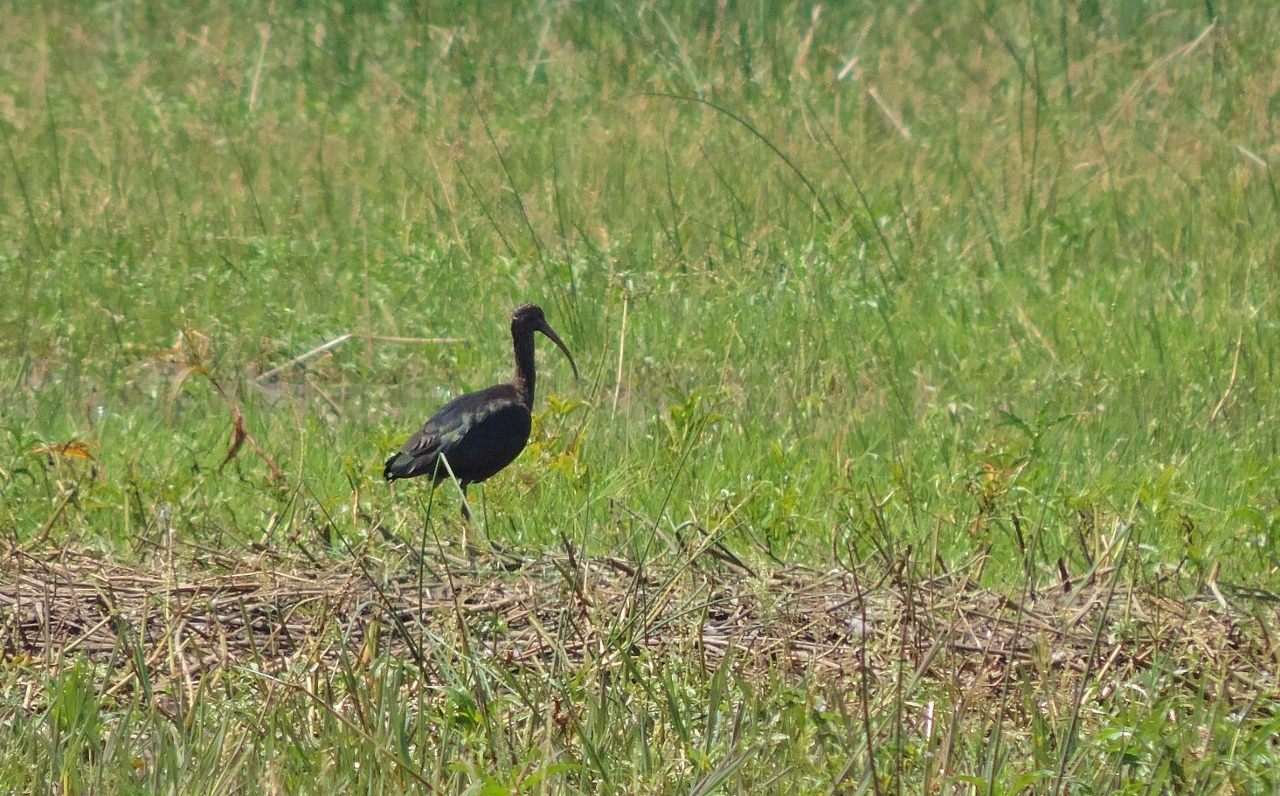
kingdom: Animalia
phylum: Chordata
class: Aves
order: Pelecaniformes
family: Threskiornithidae
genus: Plegadis
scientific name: Plegadis falcinellus
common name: Glossy ibis
